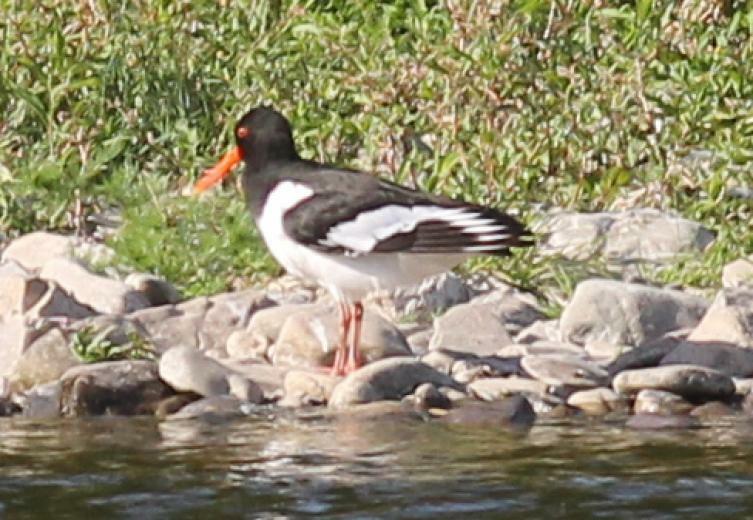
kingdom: Animalia
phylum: Chordata
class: Aves
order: Charadriiformes
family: Haematopodidae
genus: Haematopus
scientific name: Haematopus ostralegus
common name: Eurasian oystercatcher
